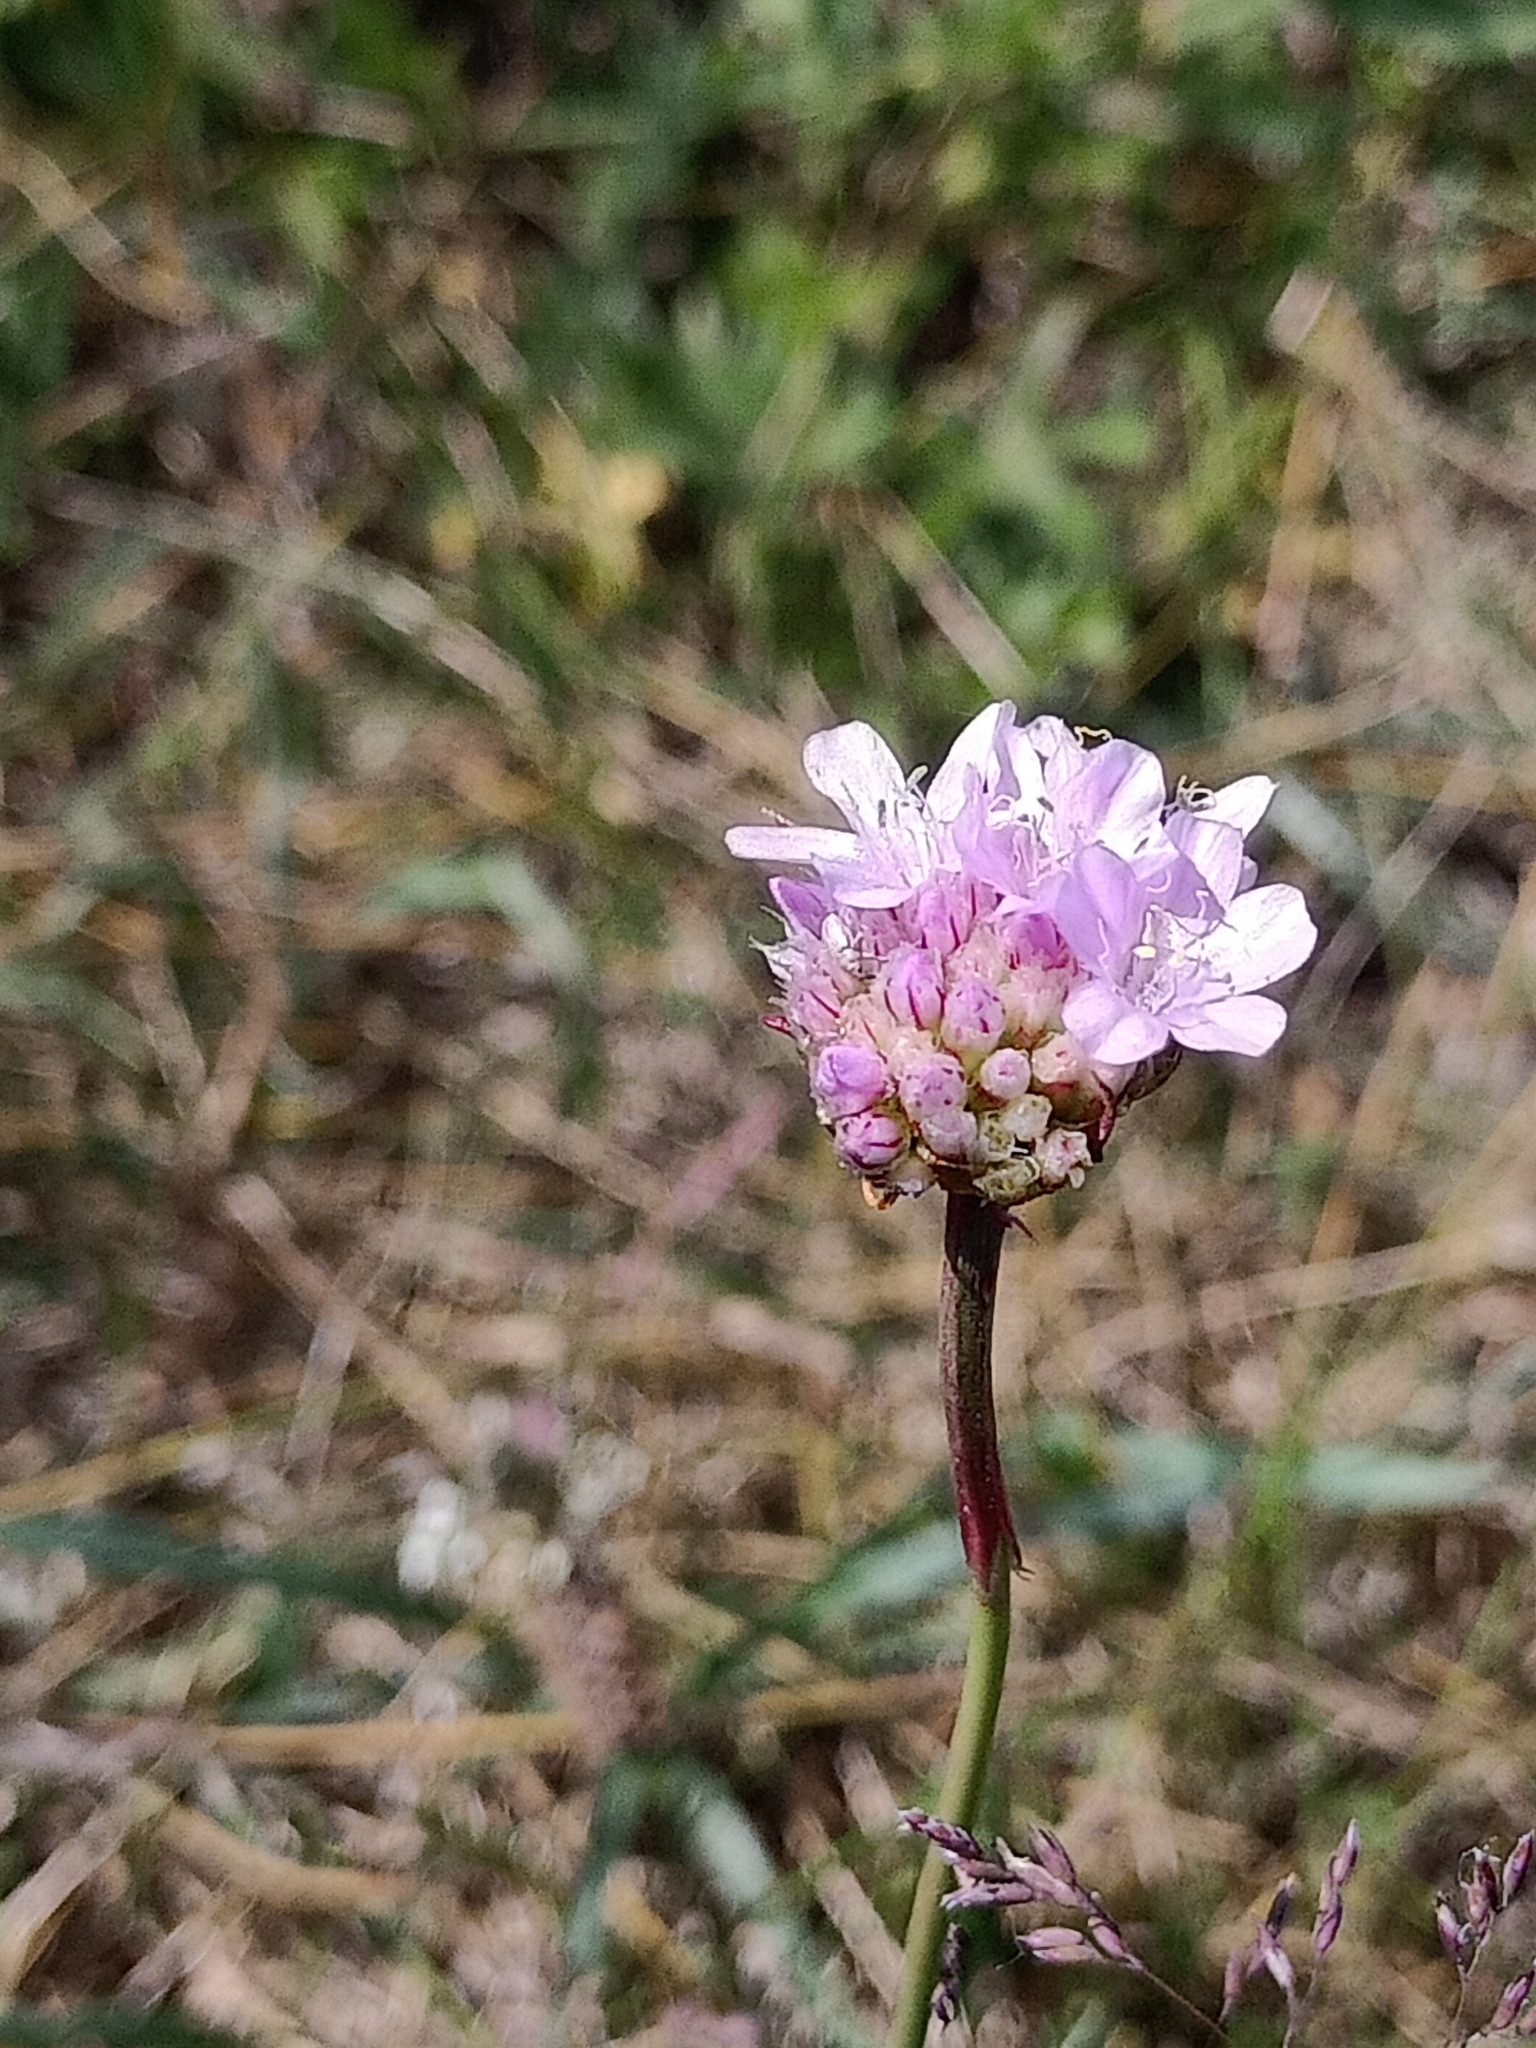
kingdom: Plantae
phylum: Tracheophyta
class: Magnoliopsida
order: Caryophyllales
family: Plumbaginaceae
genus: Armeria
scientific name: Armeria maritima
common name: Thrift
